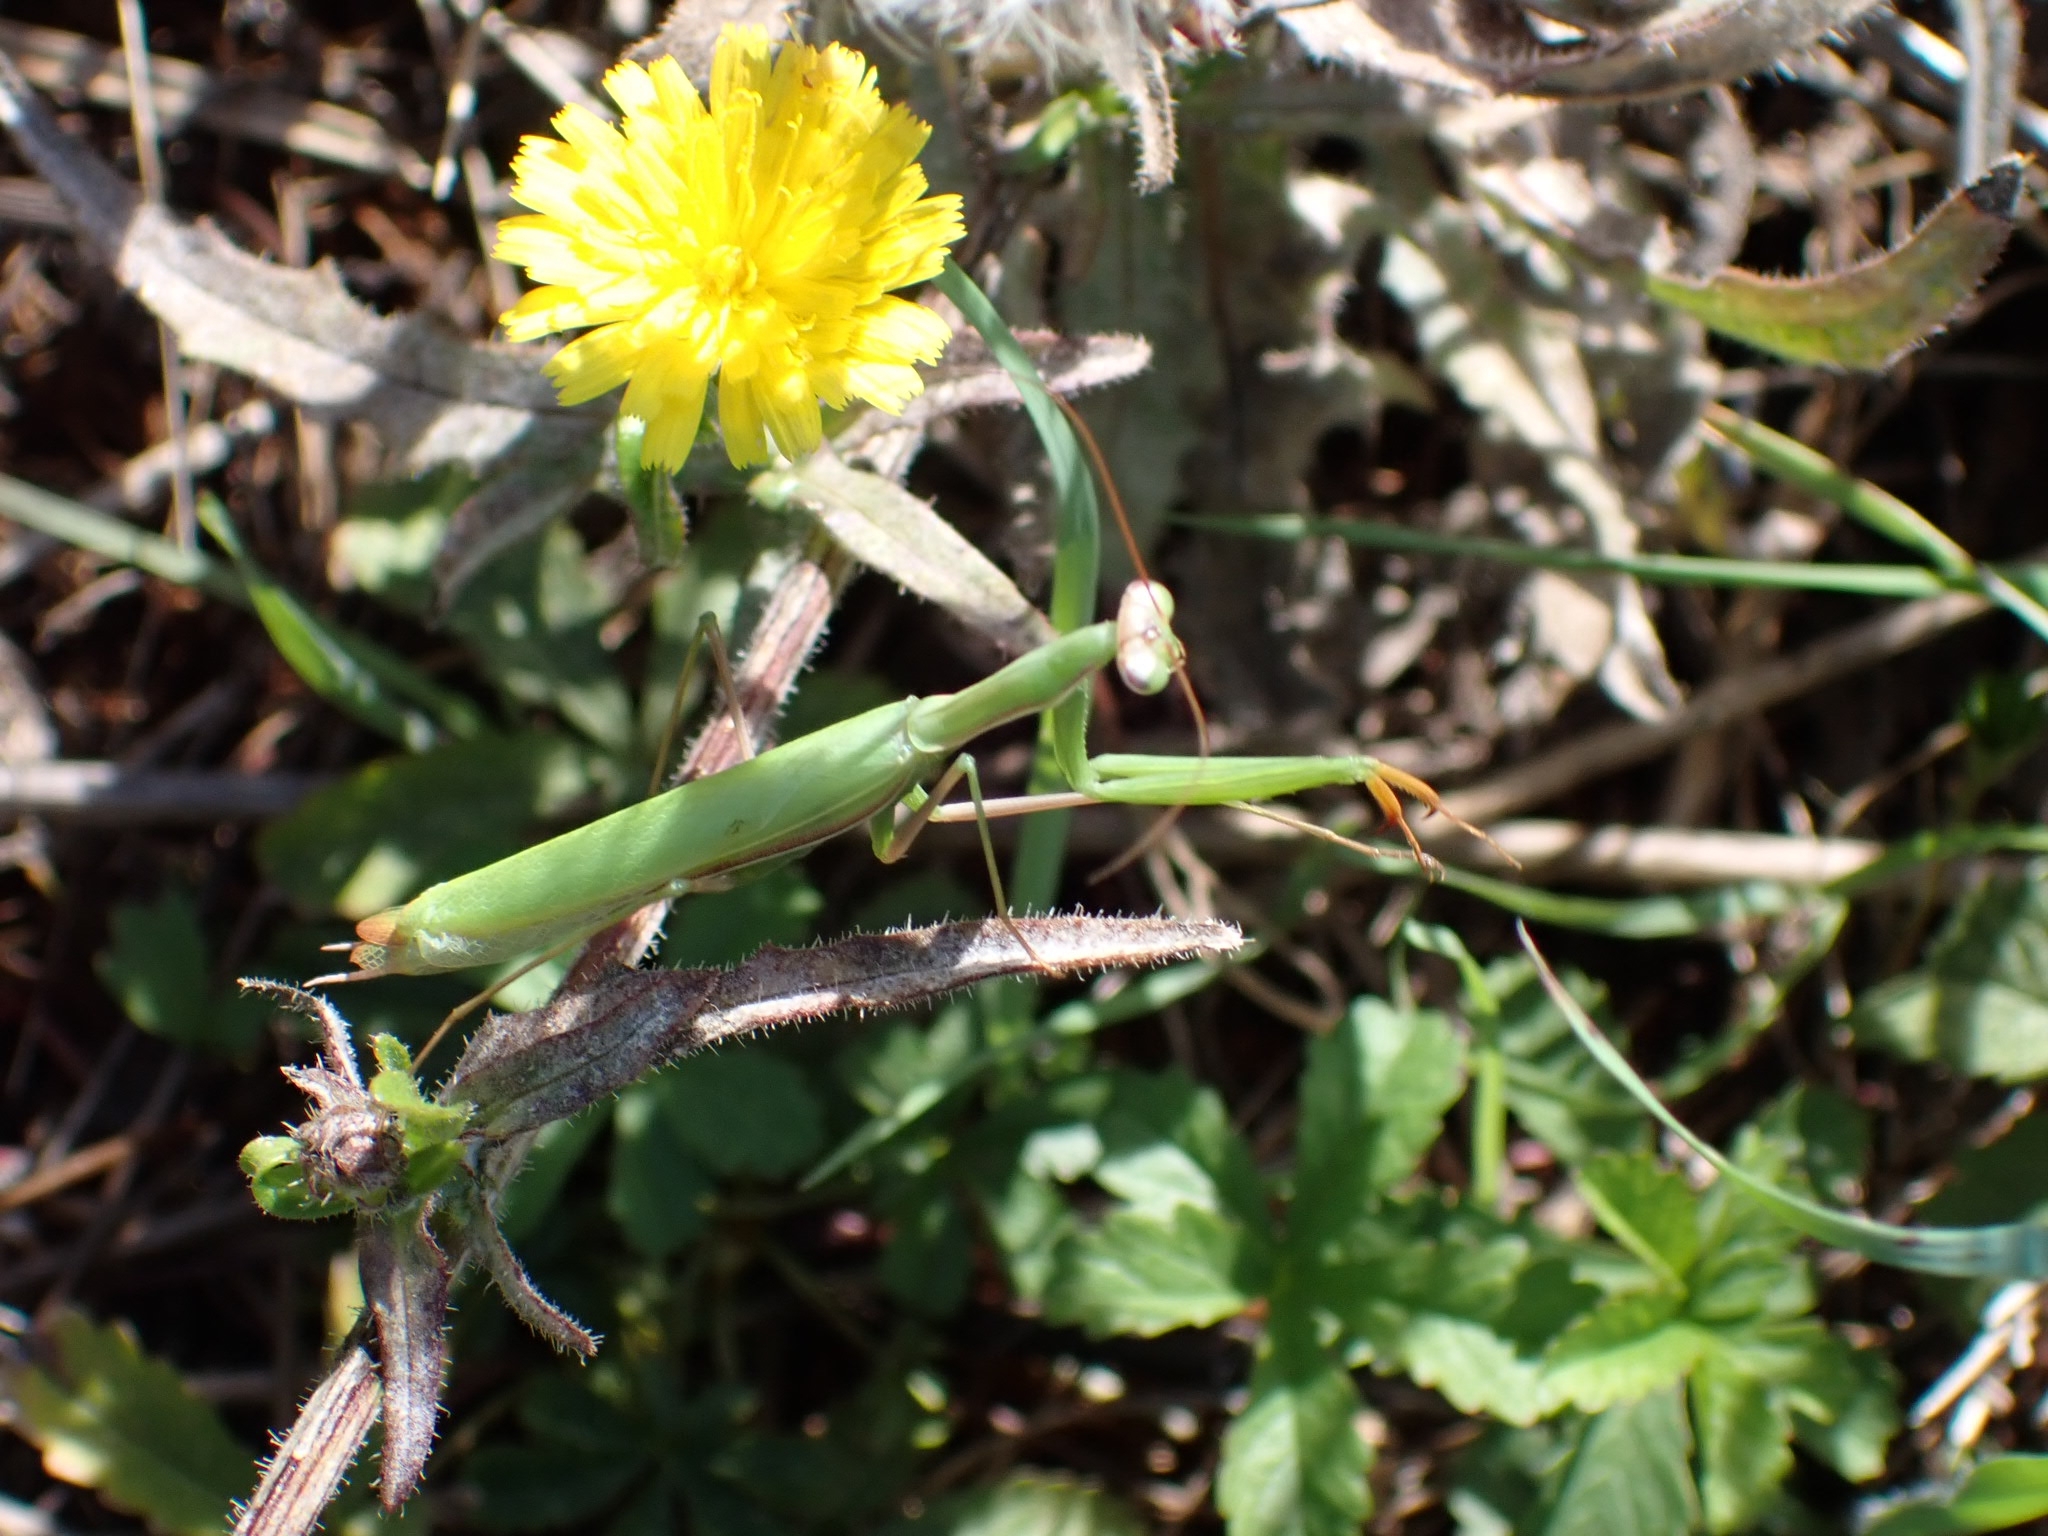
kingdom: Animalia
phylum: Arthropoda
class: Insecta
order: Mantodea
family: Mantidae
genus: Mantis
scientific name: Mantis religiosa
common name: Praying mantis
